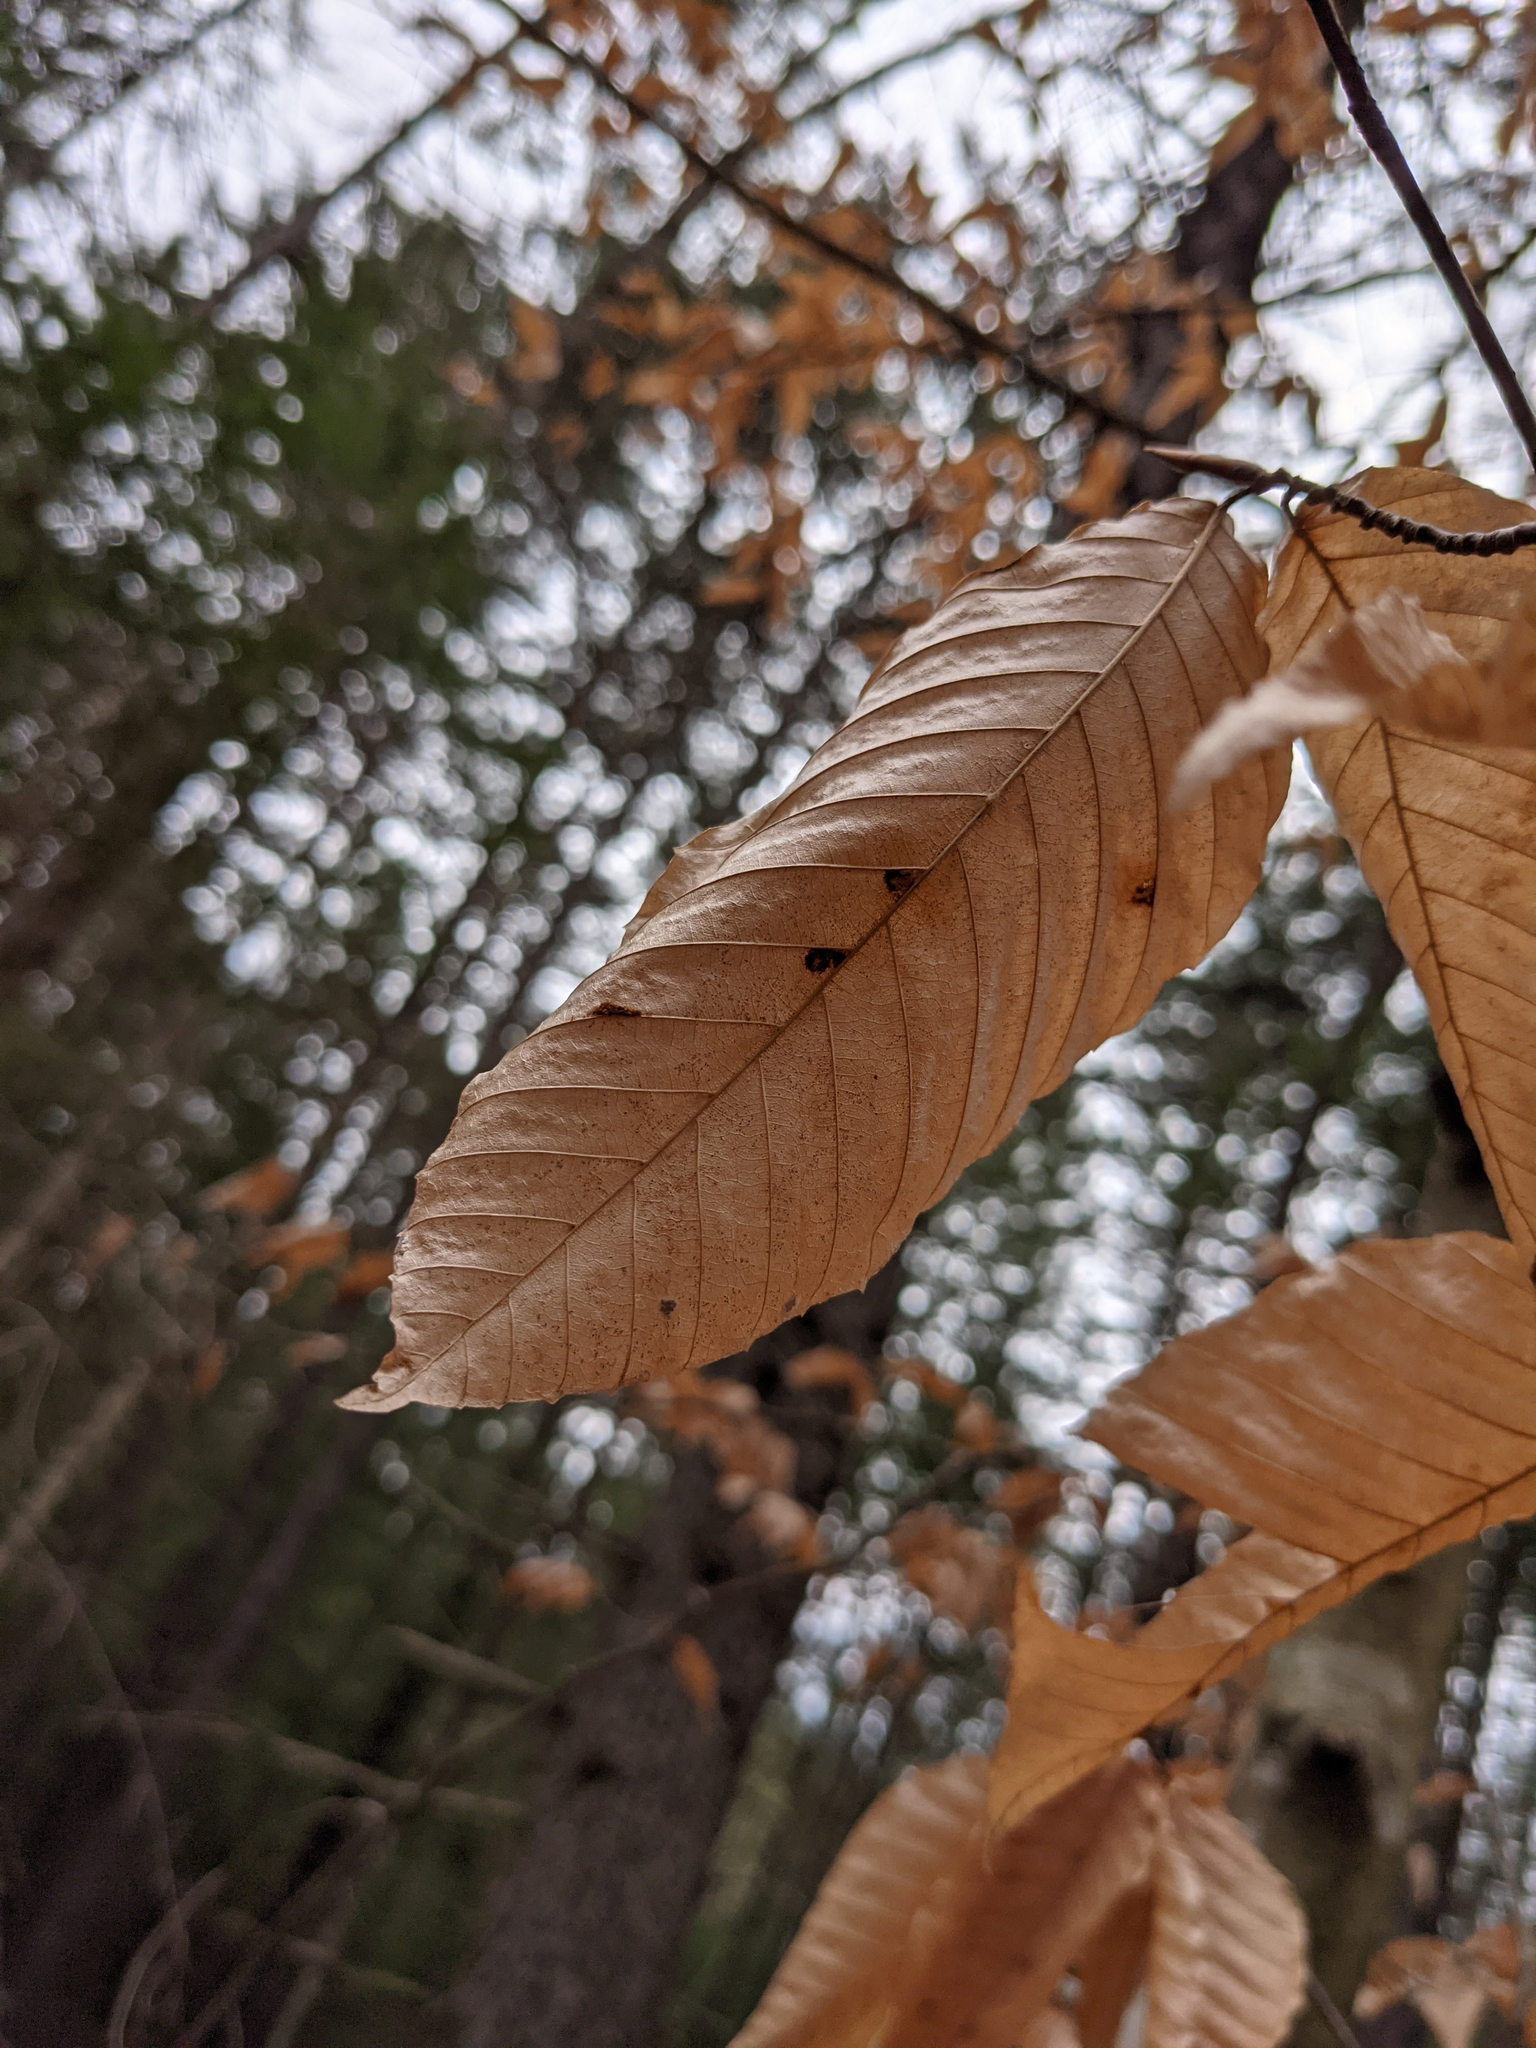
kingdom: Plantae
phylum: Tracheophyta
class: Magnoliopsida
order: Fagales
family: Fagaceae
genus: Fagus
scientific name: Fagus grandifolia
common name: American beech
